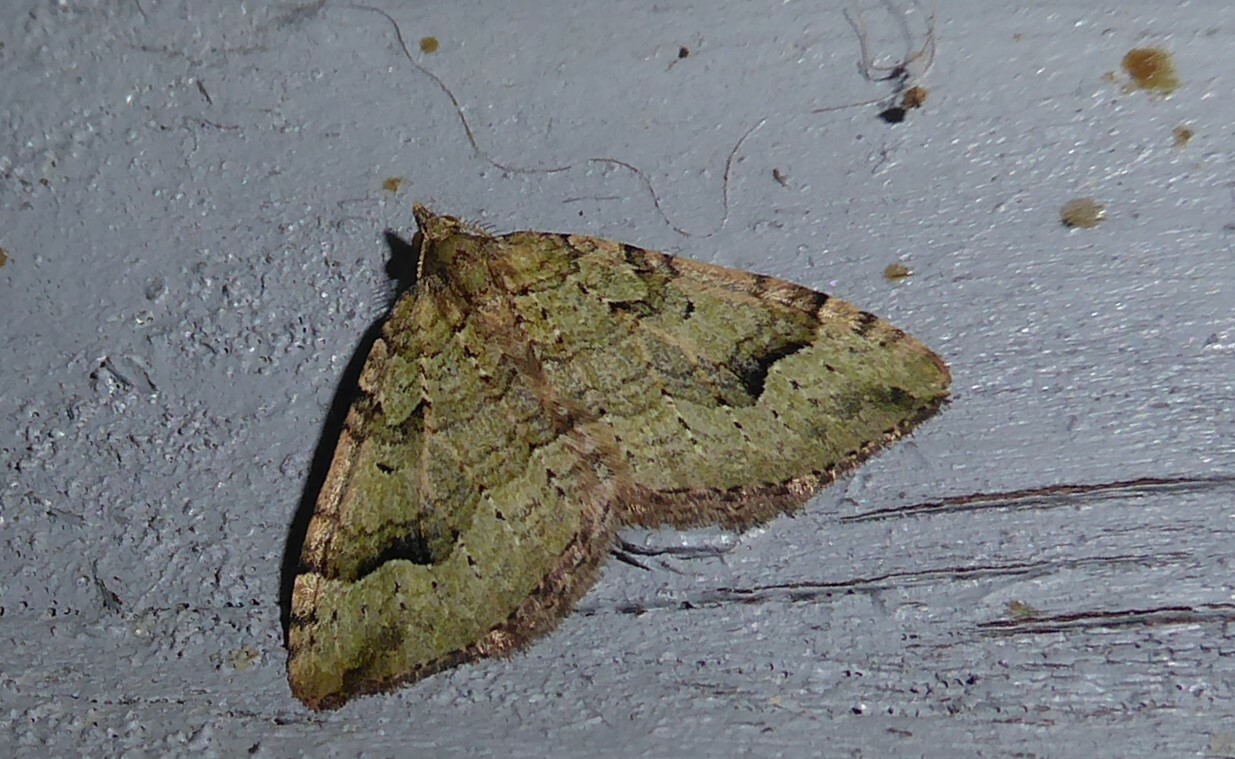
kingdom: Animalia
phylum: Arthropoda
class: Insecta
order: Lepidoptera
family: Geometridae
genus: Epyaxa
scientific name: Epyaxa rosearia
